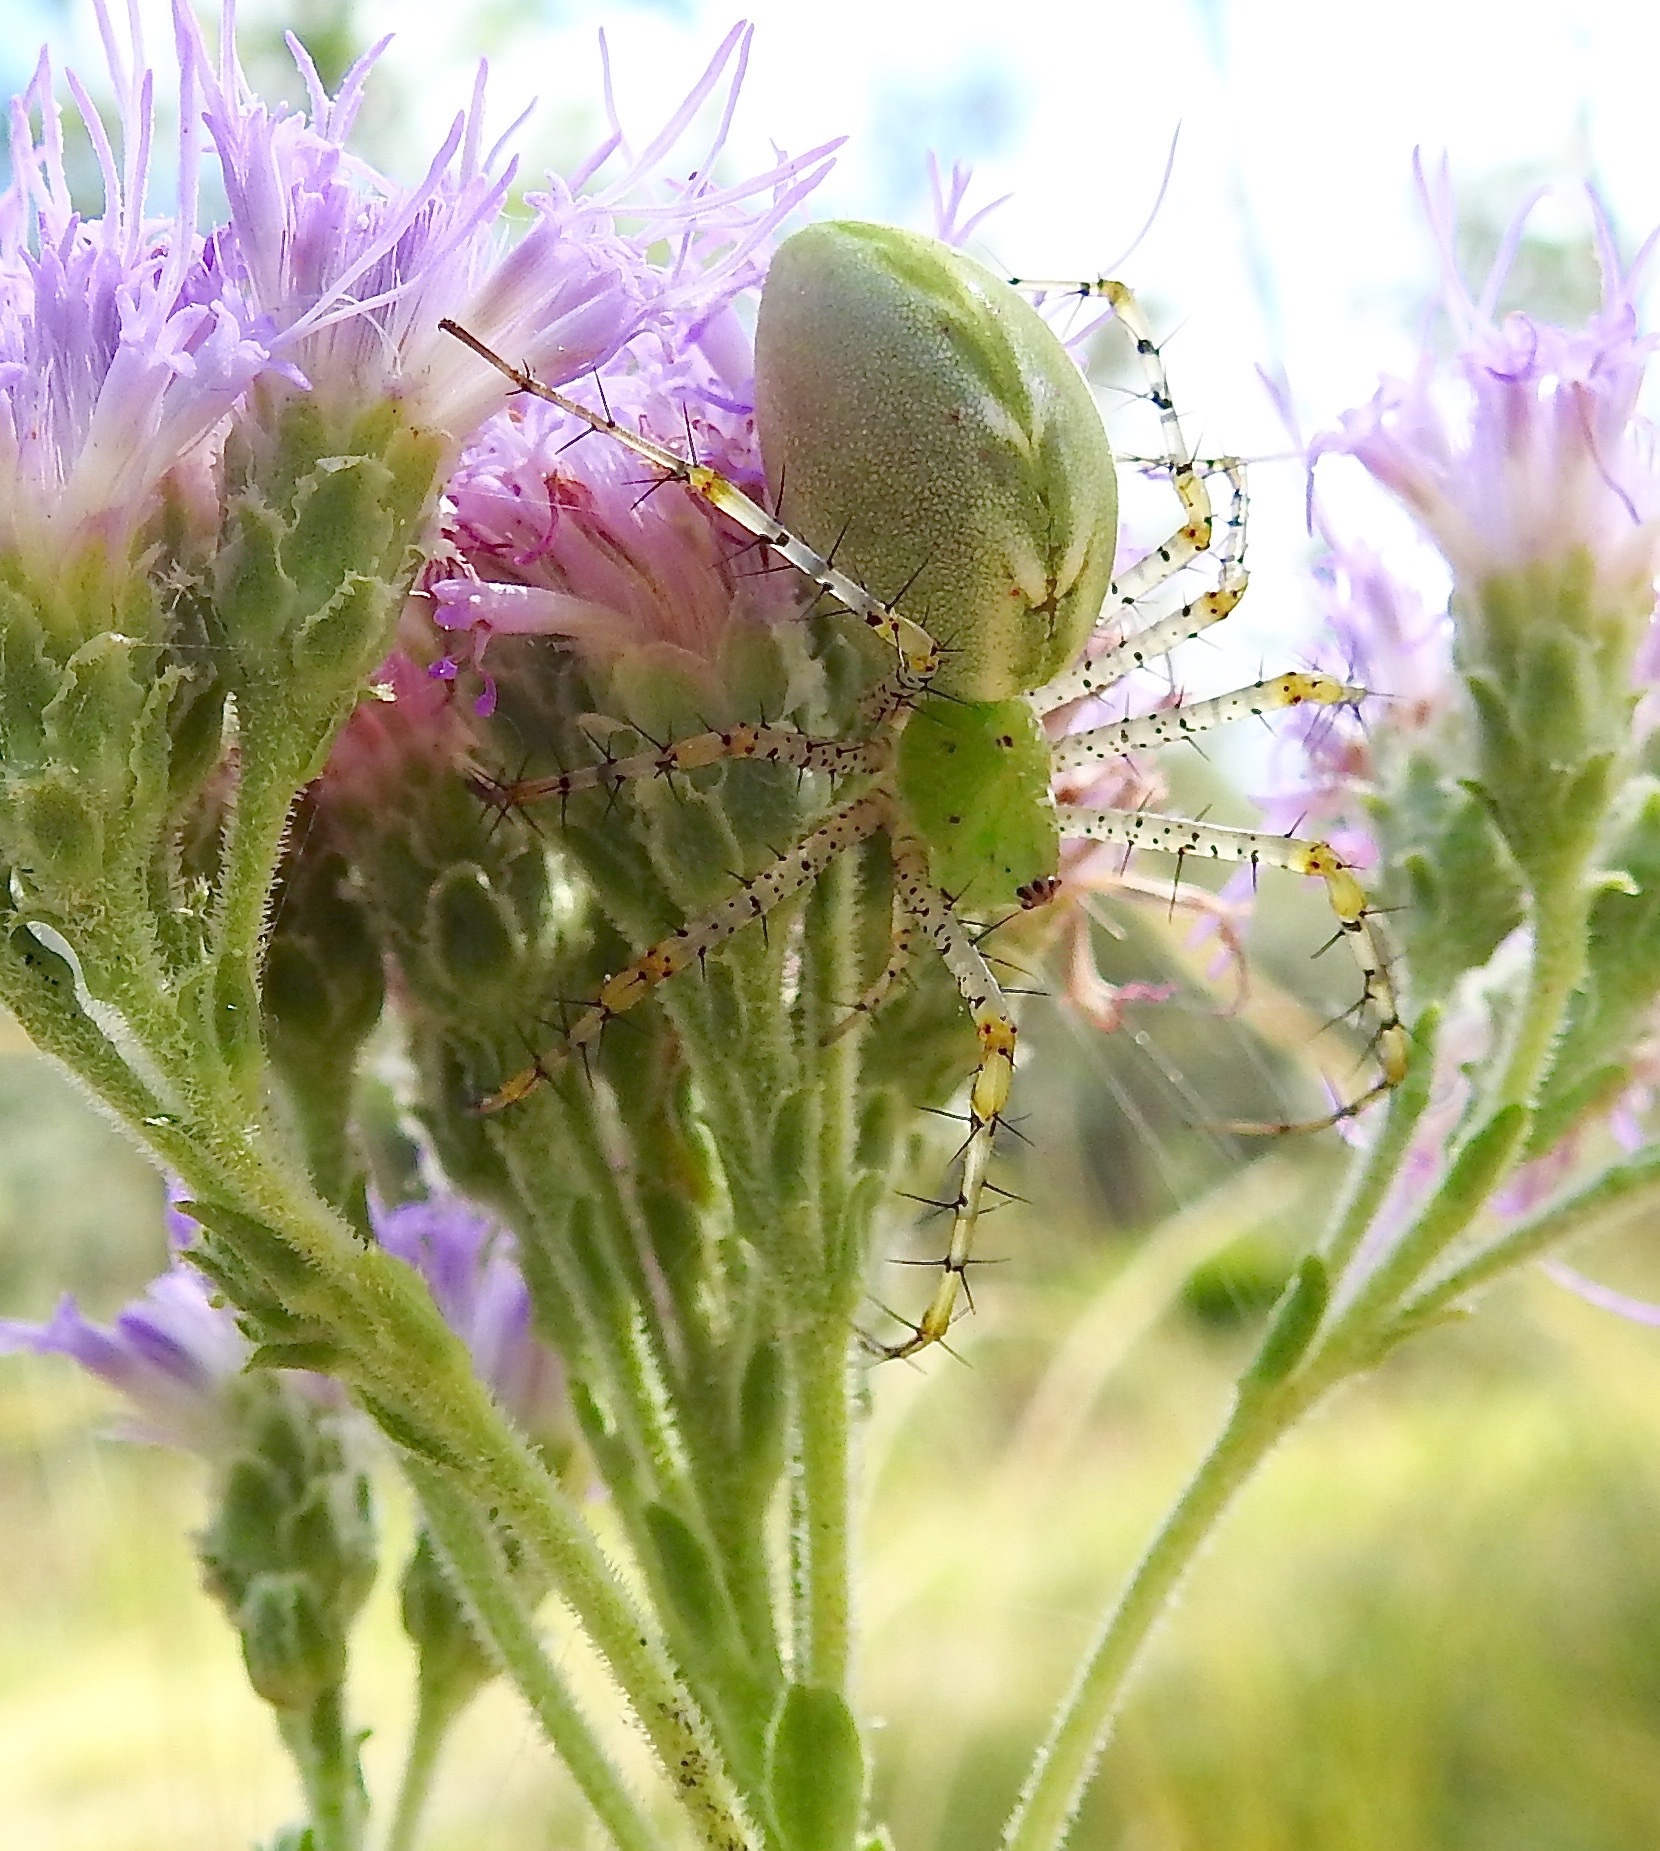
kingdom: Animalia
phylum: Arthropoda
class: Arachnida
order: Araneae
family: Oxyopidae
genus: Peucetia
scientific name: Peucetia viridans
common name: Lynx spiders
